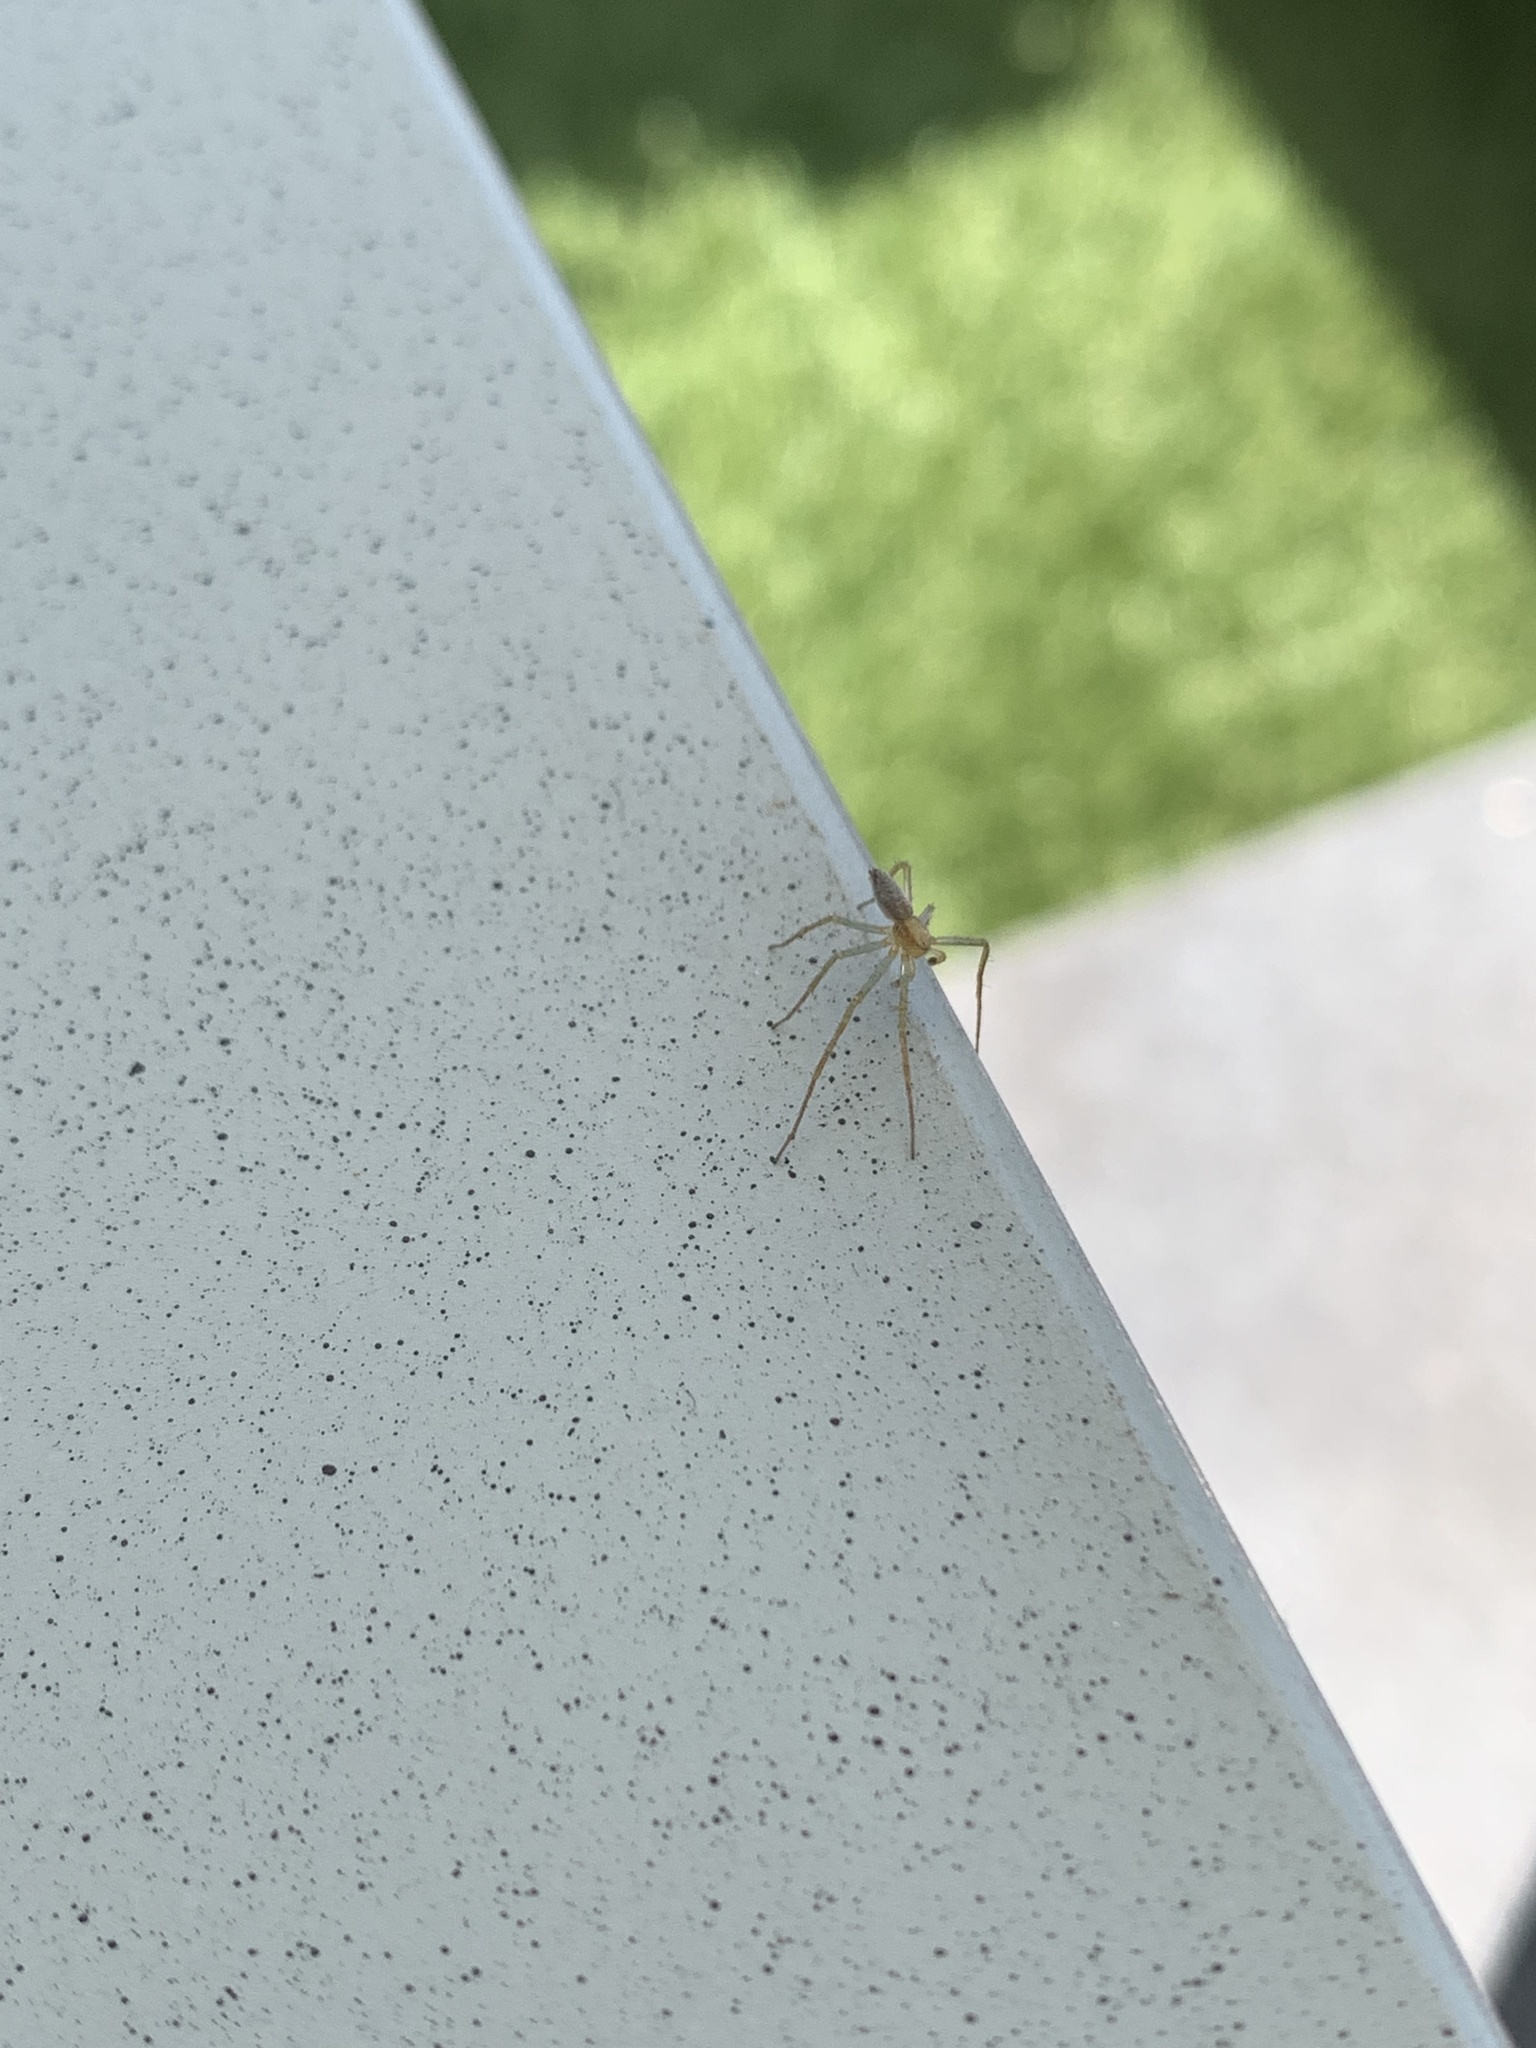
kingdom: Animalia
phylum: Arthropoda
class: Arachnida
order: Araneae
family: Philodromidae
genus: Philodromus
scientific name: Philodromus albidus
